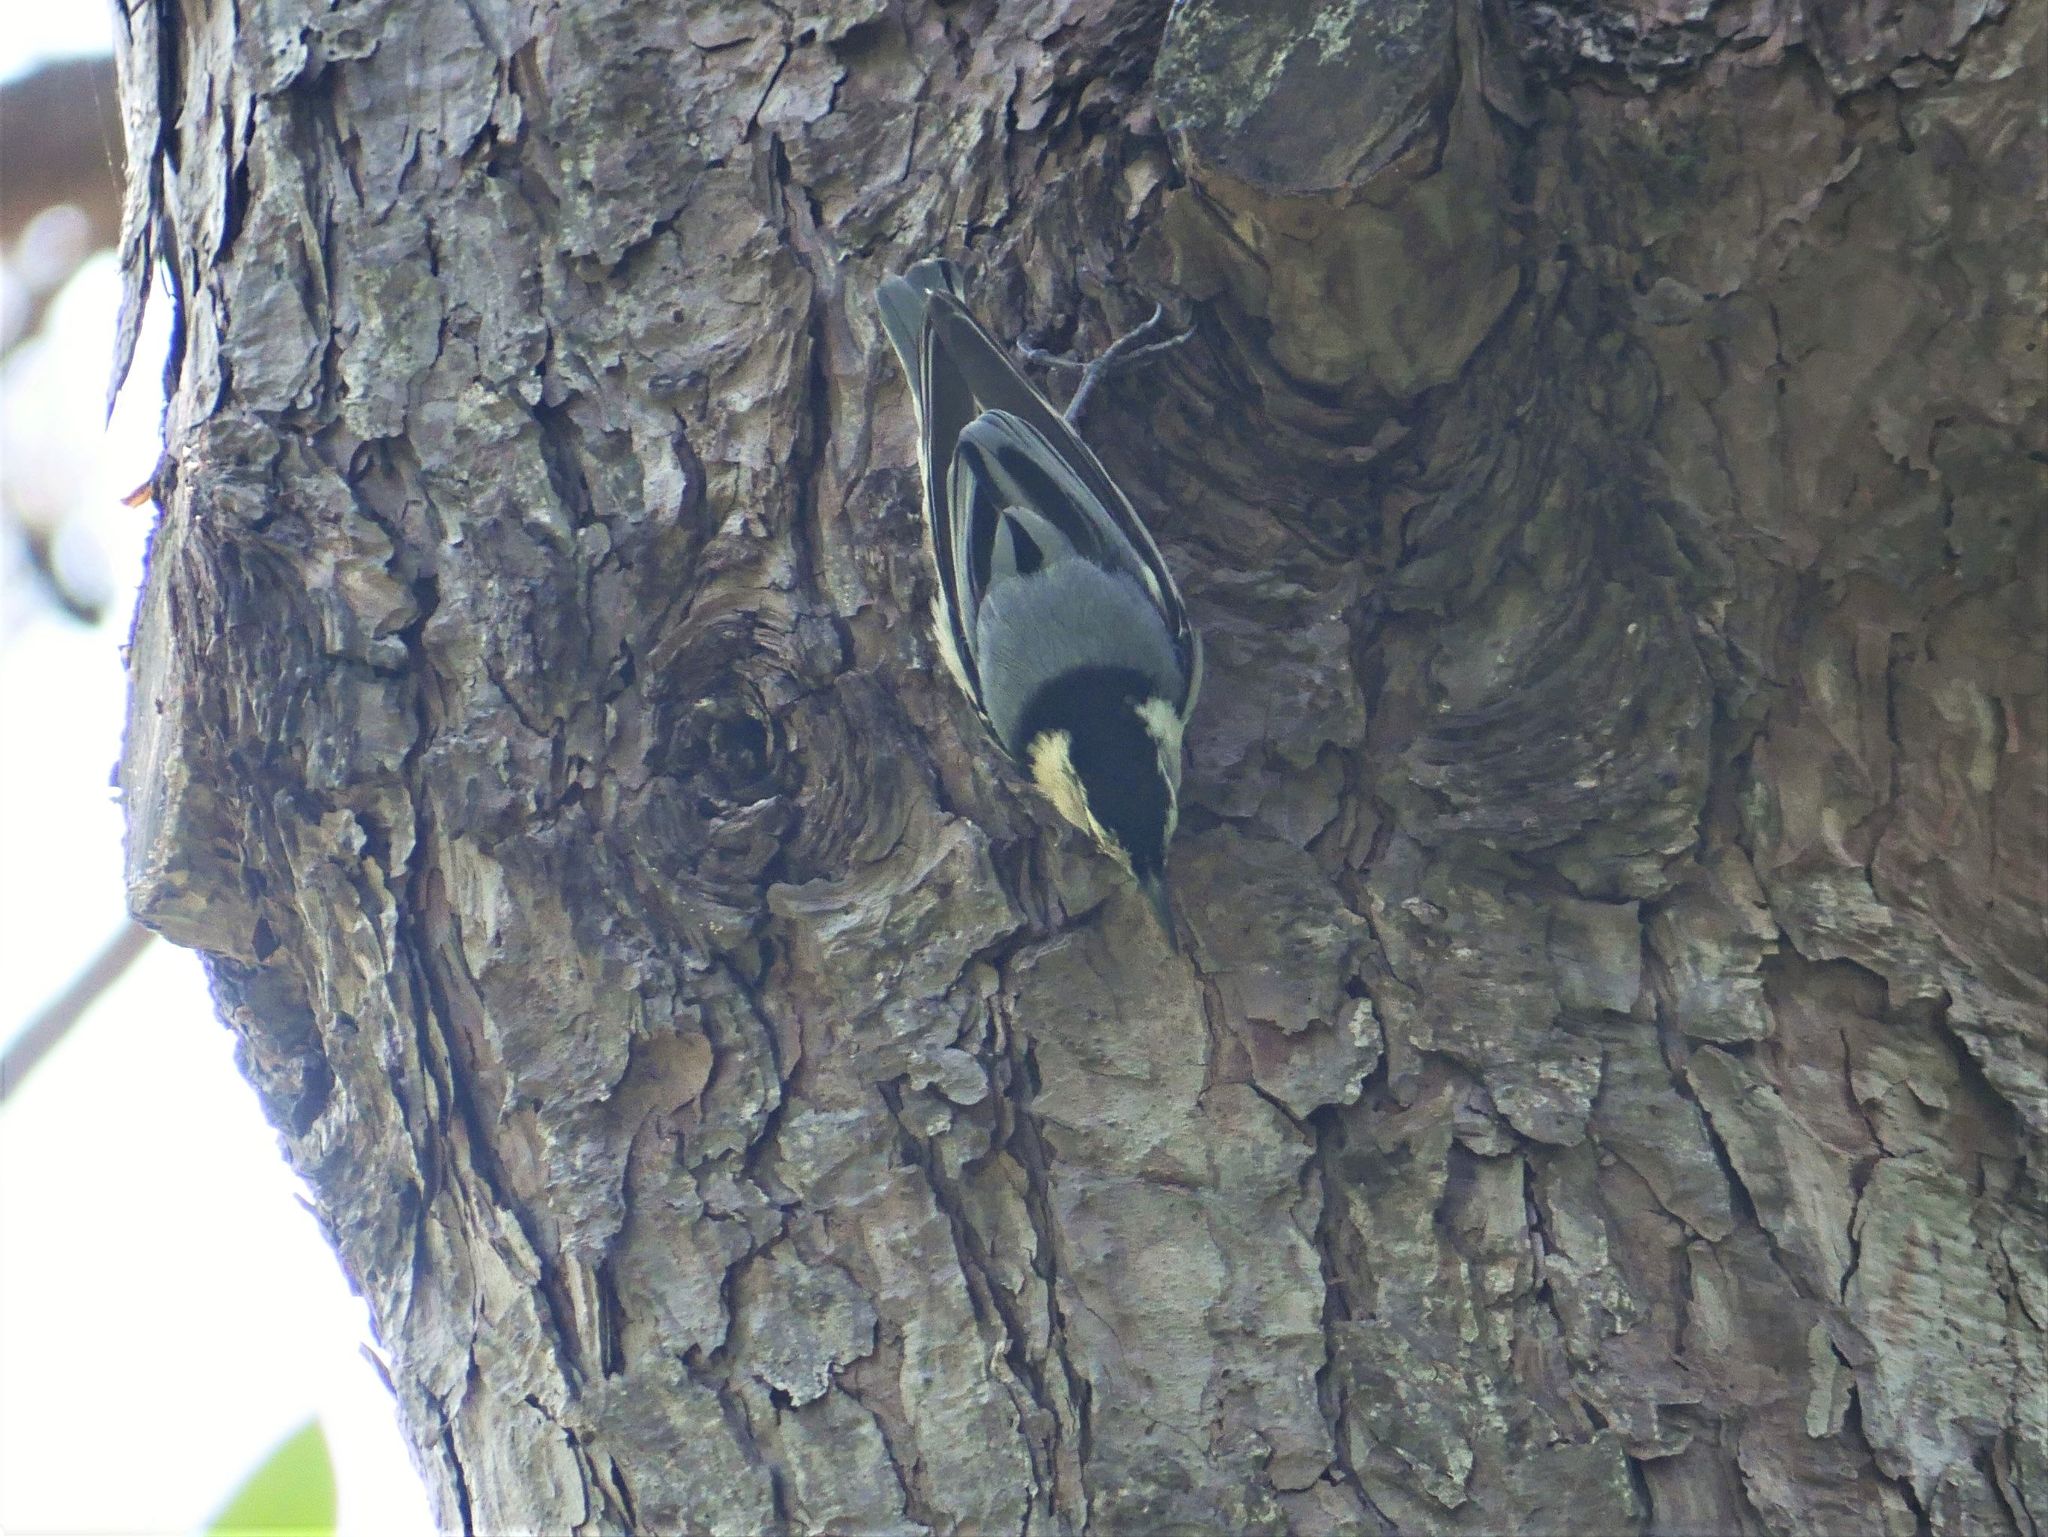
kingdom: Animalia
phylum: Chordata
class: Aves
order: Passeriformes
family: Sittidae
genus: Sitta
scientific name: Sitta carolinensis
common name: White-breasted nuthatch
